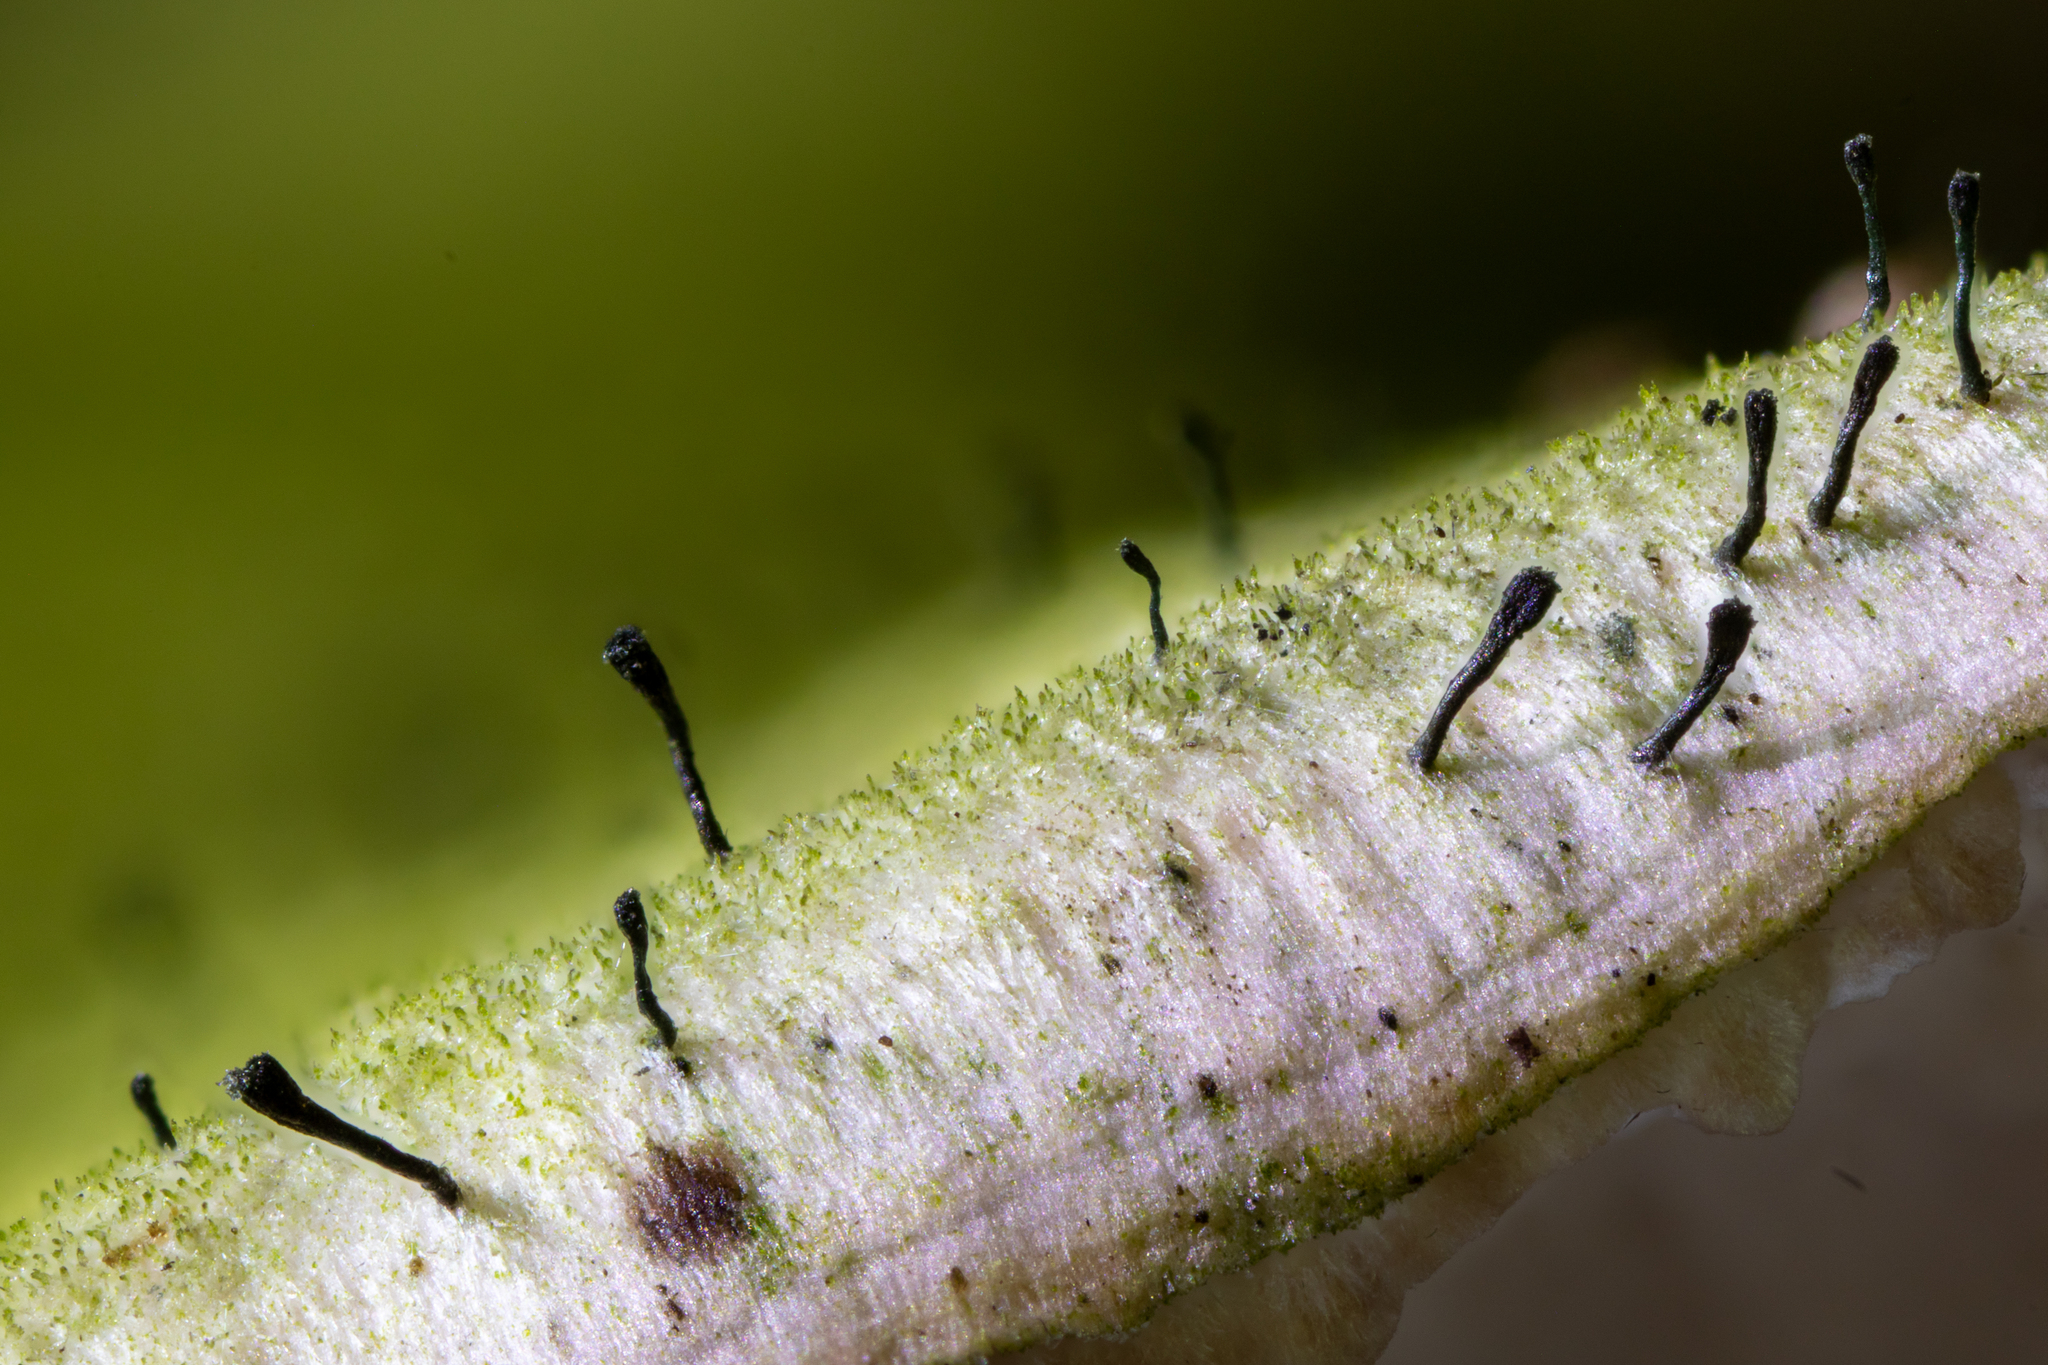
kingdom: Fungi
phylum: Ascomycota
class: Eurotiomycetes
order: Mycocaliciales
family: Mycocaliciaceae
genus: Phaeocalicium
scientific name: Phaeocalicium polyporaeum
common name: Fairy pins
